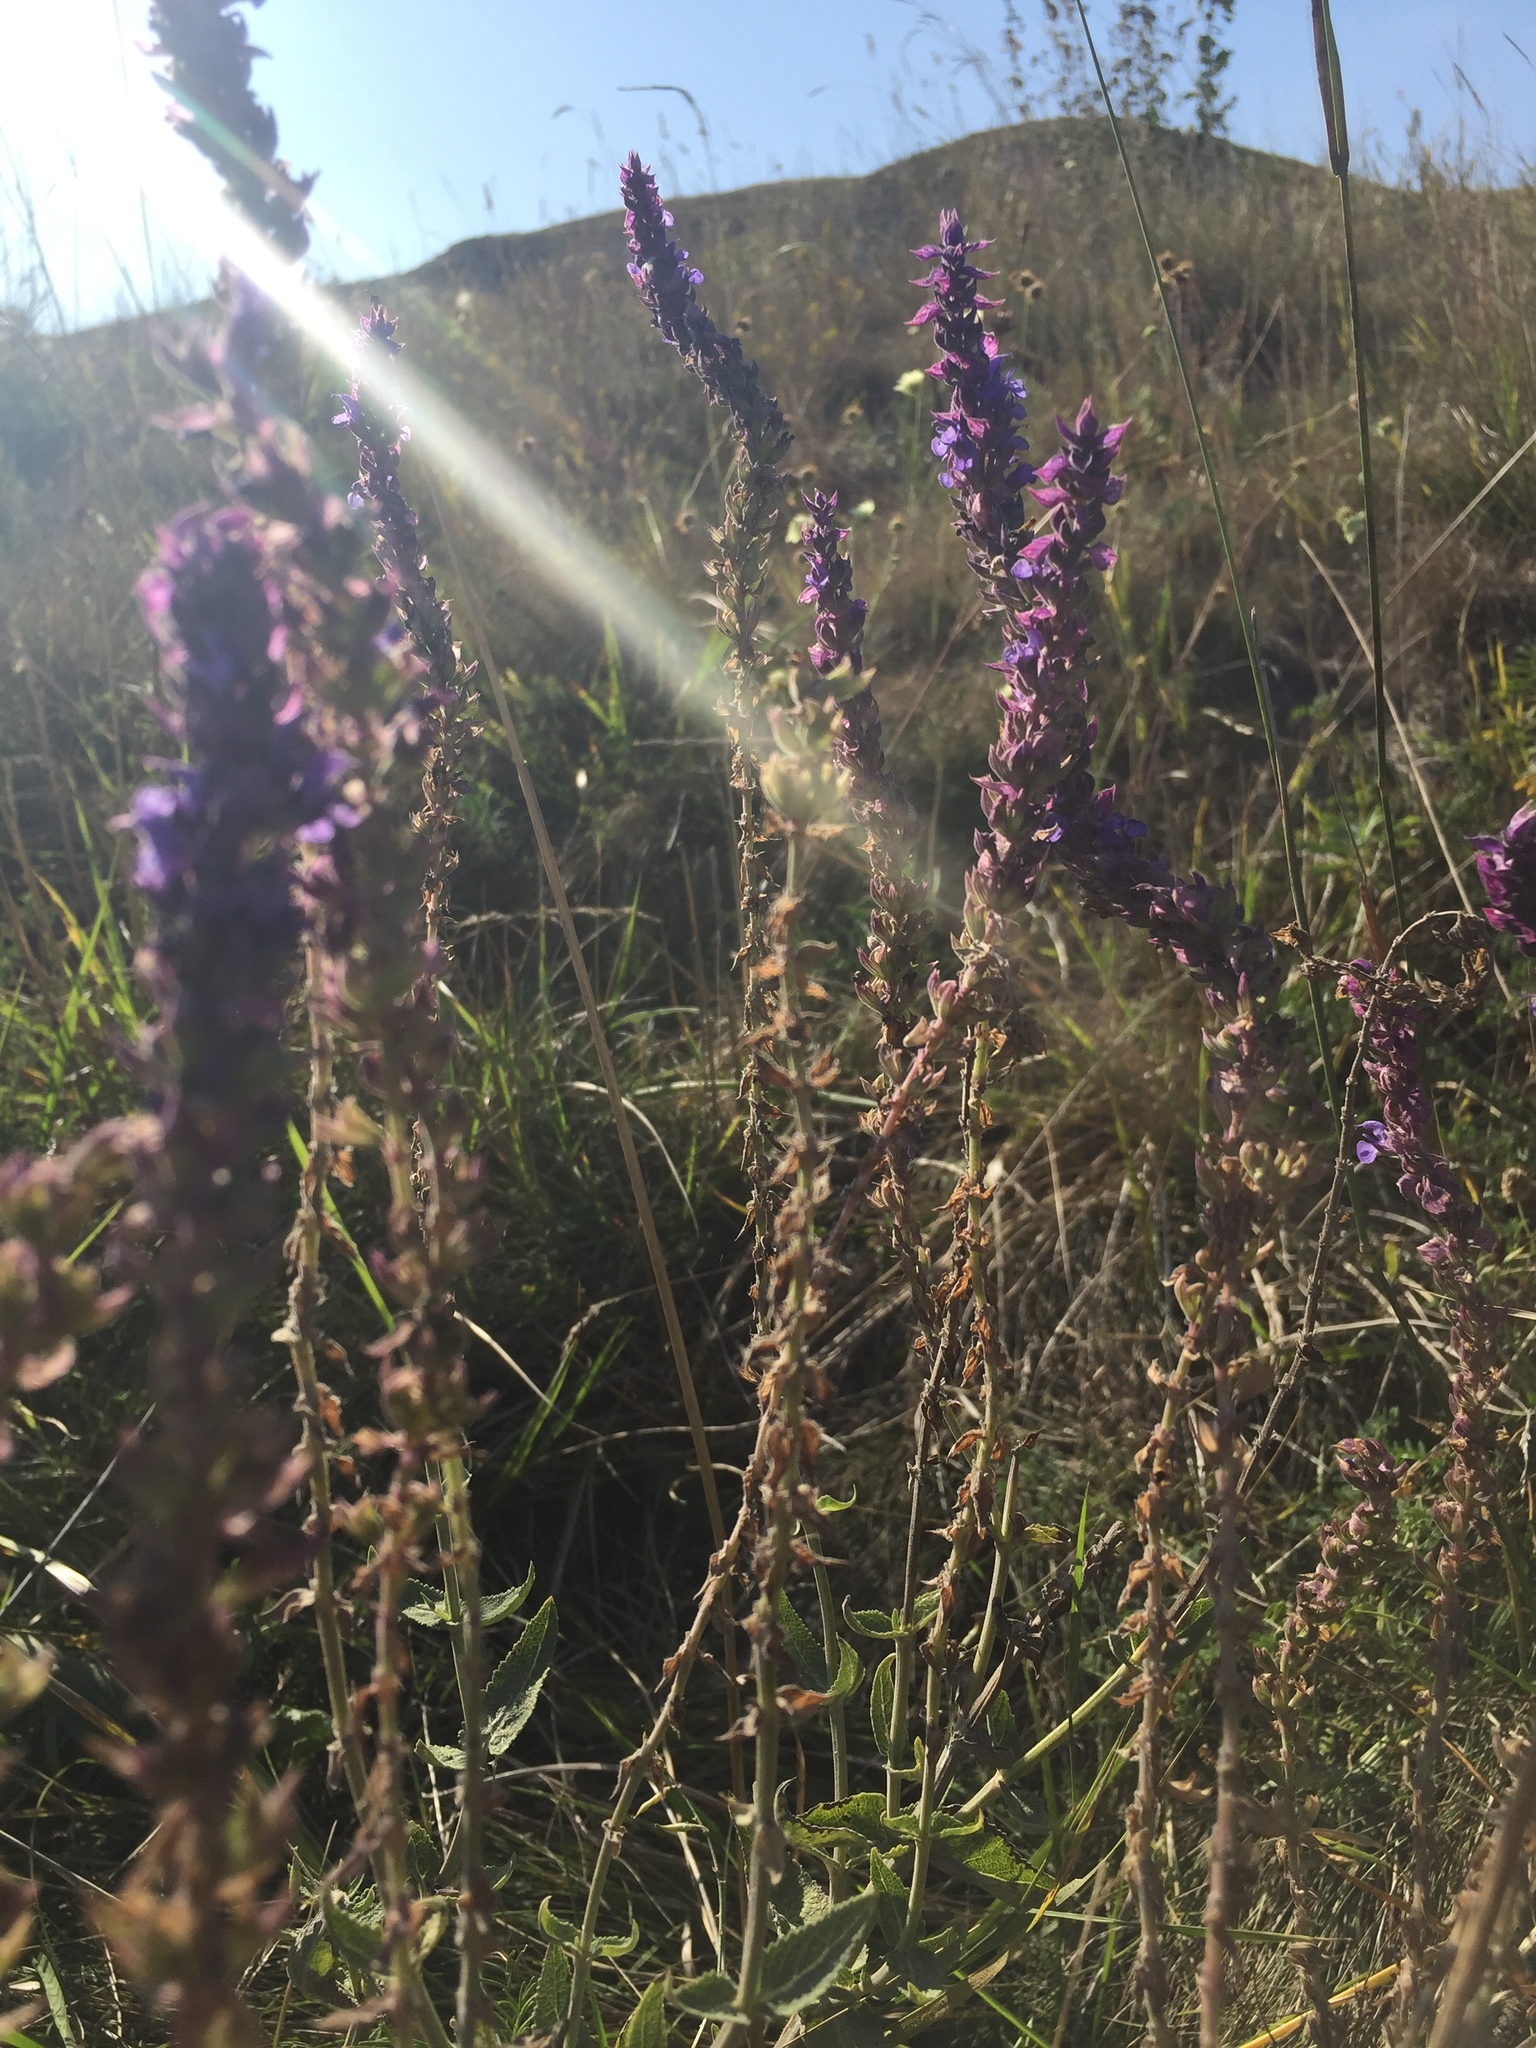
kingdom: Plantae
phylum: Tracheophyta
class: Magnoliopsida
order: Lamiales
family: Lamiaceae
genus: Salvia
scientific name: Salvia nemorosa
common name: Balkan clary
